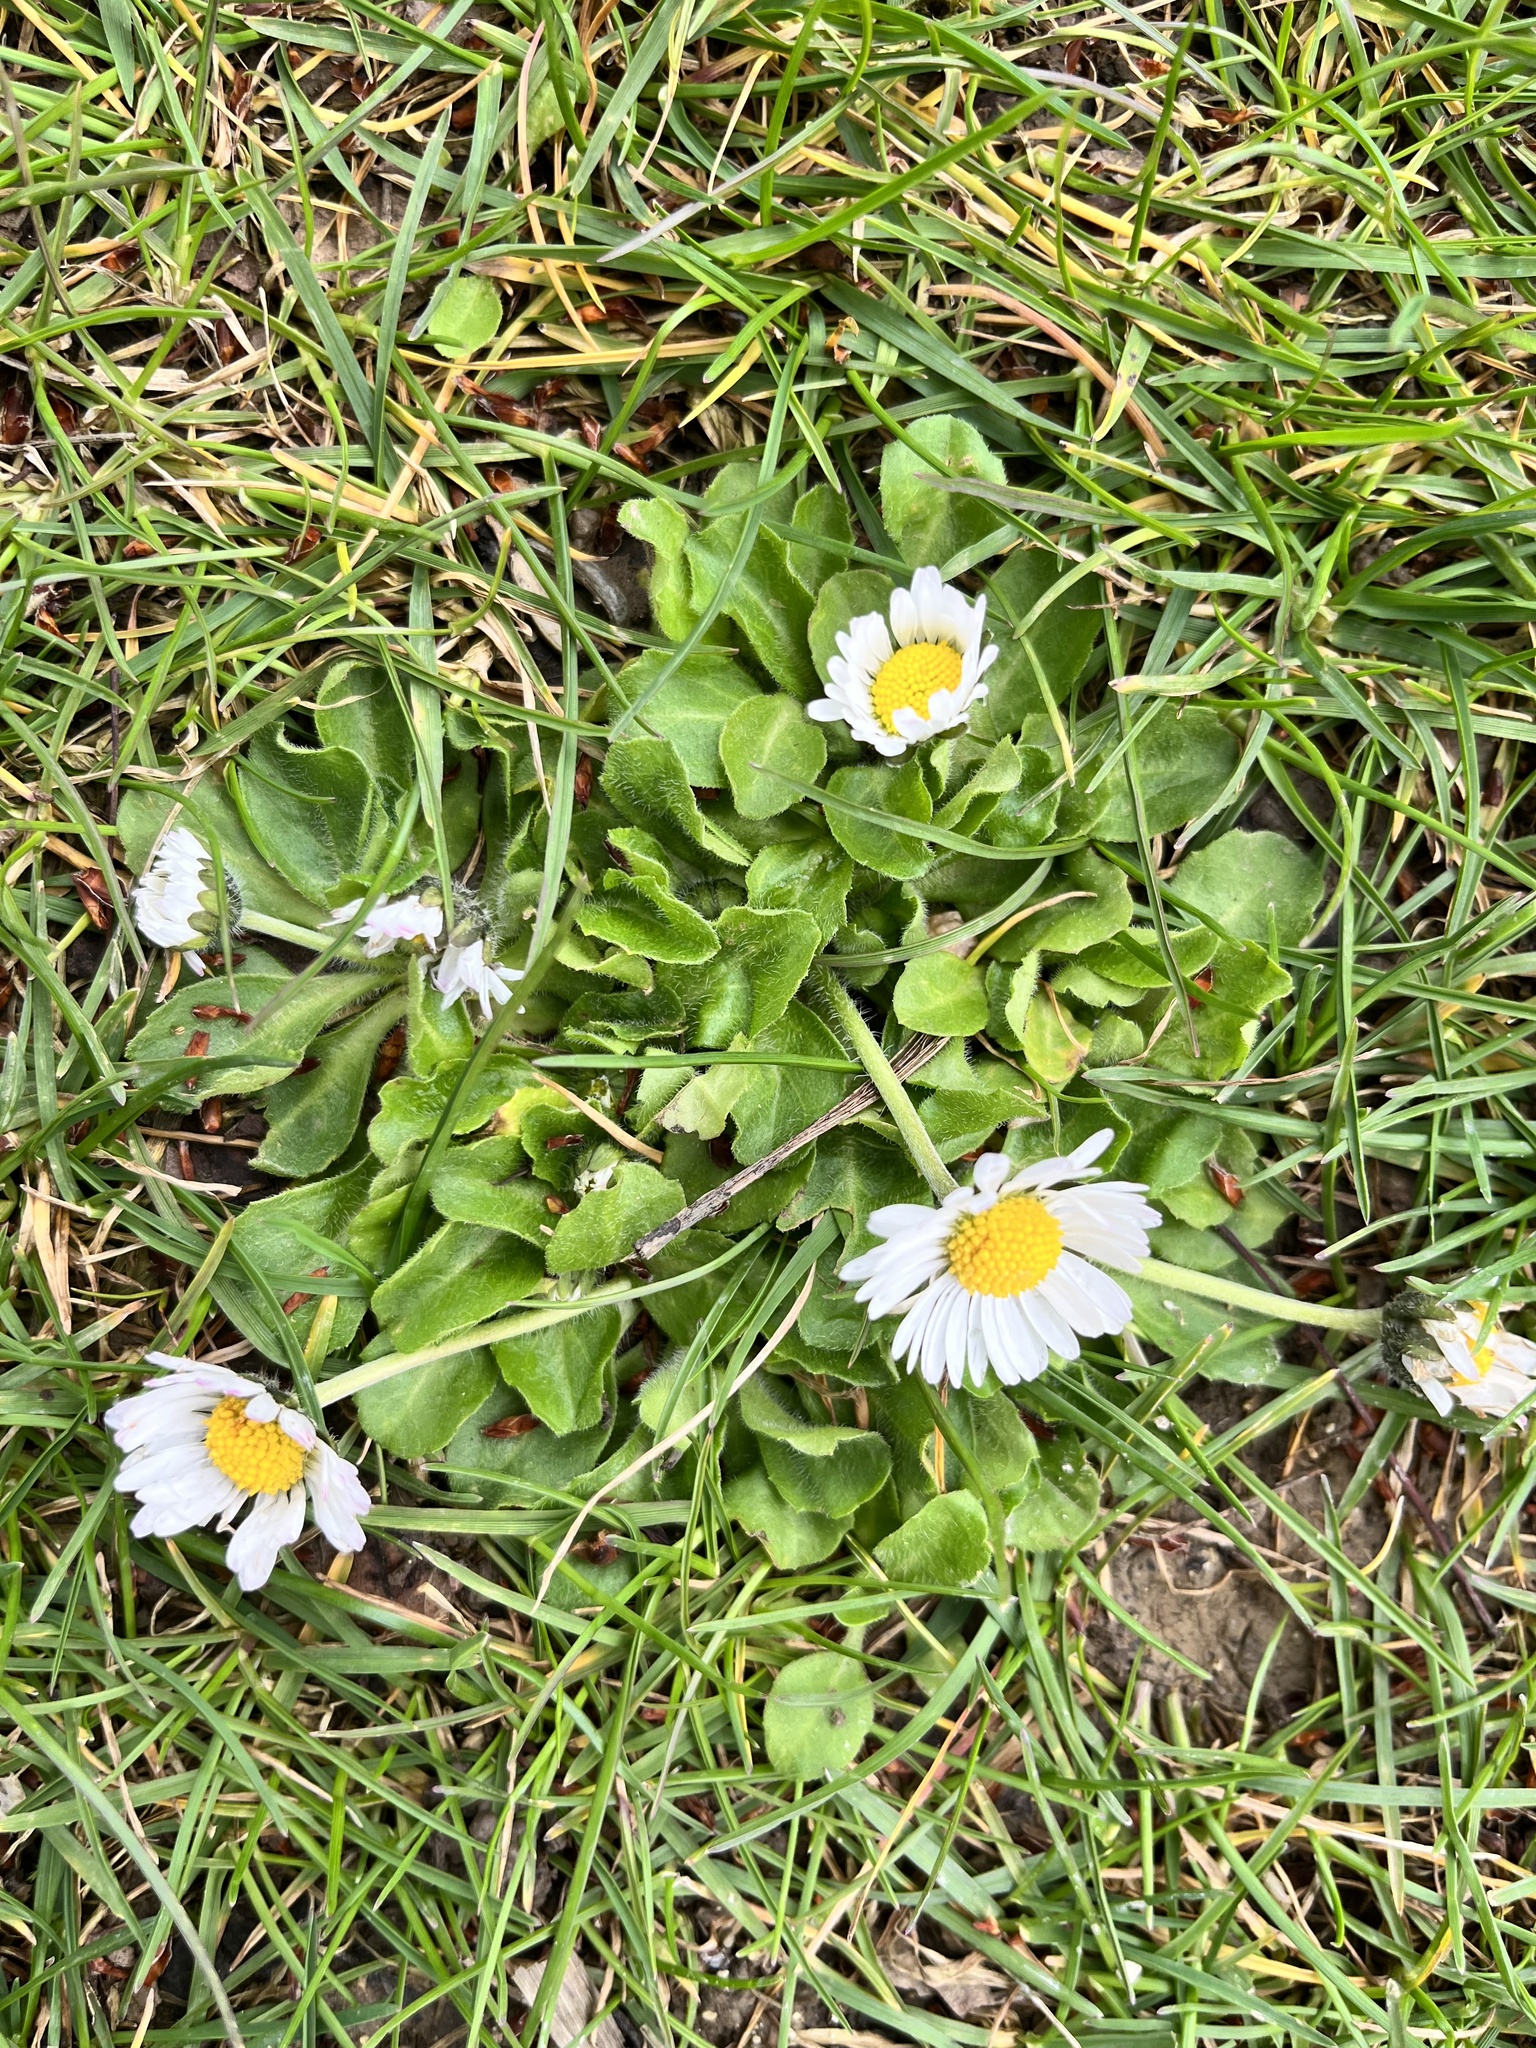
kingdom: Plantae
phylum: Tracheophyta
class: Magnoliopsida
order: Asterales
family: Asteraceae
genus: Bellis
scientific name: Bellis perennis
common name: Lawndaisy
